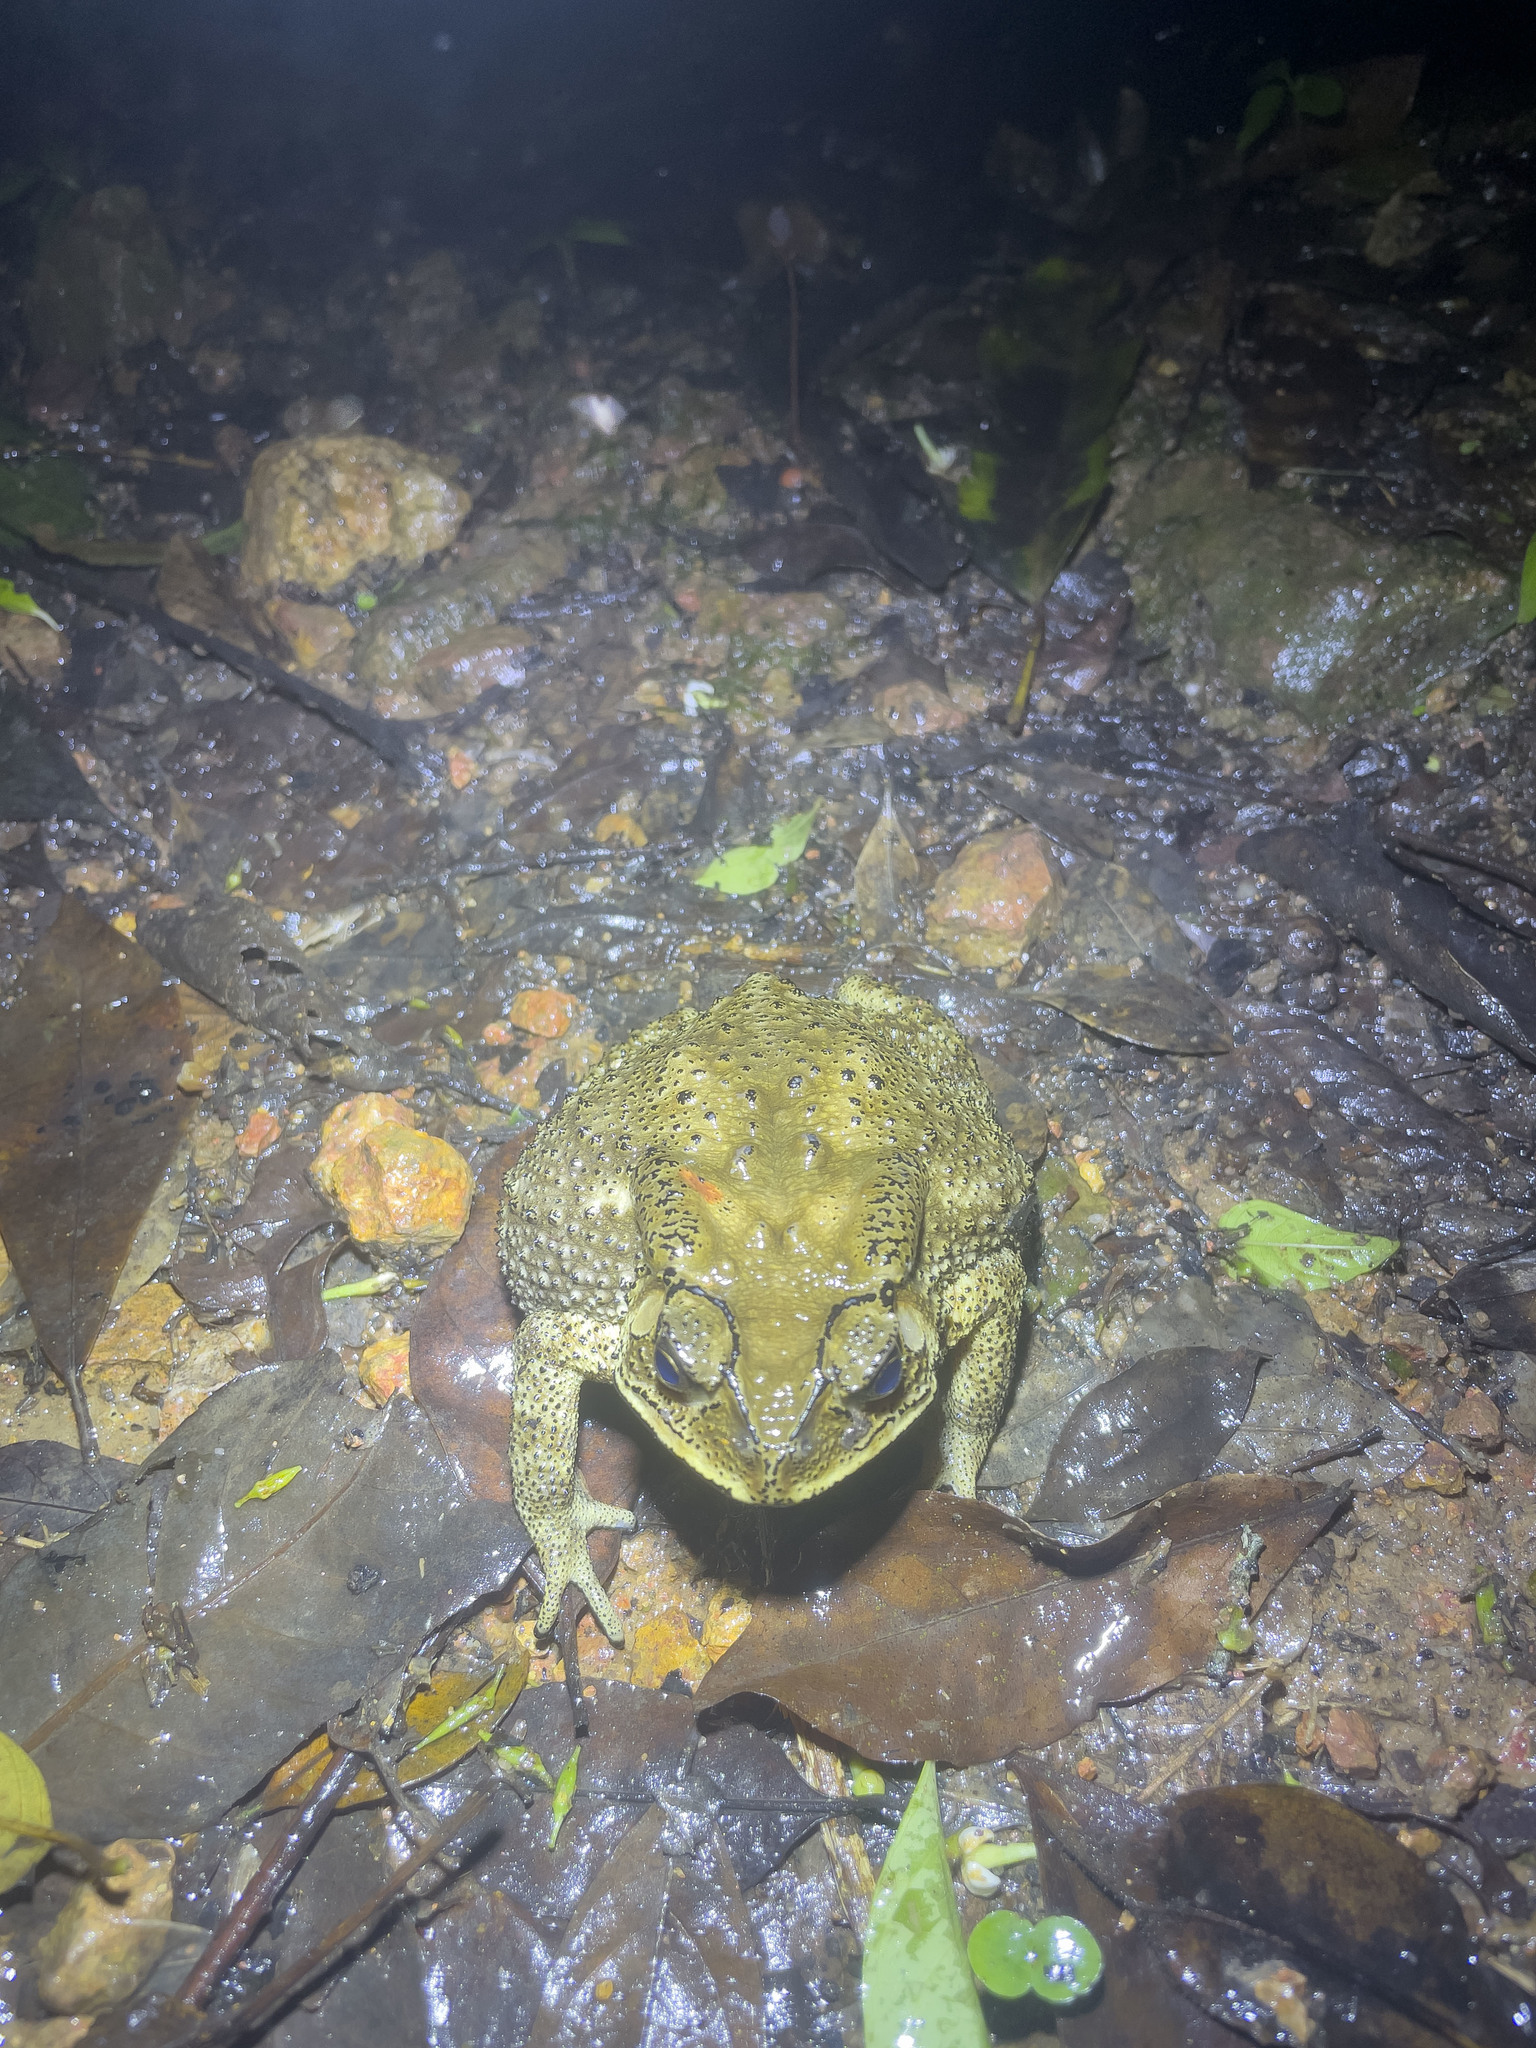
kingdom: Animalia
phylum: Chordata
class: Amphibia
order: Anura
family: Bufonidae
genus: Duttaphrynus
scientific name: Duttaphrynus melanostictus
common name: Common sunda toad
